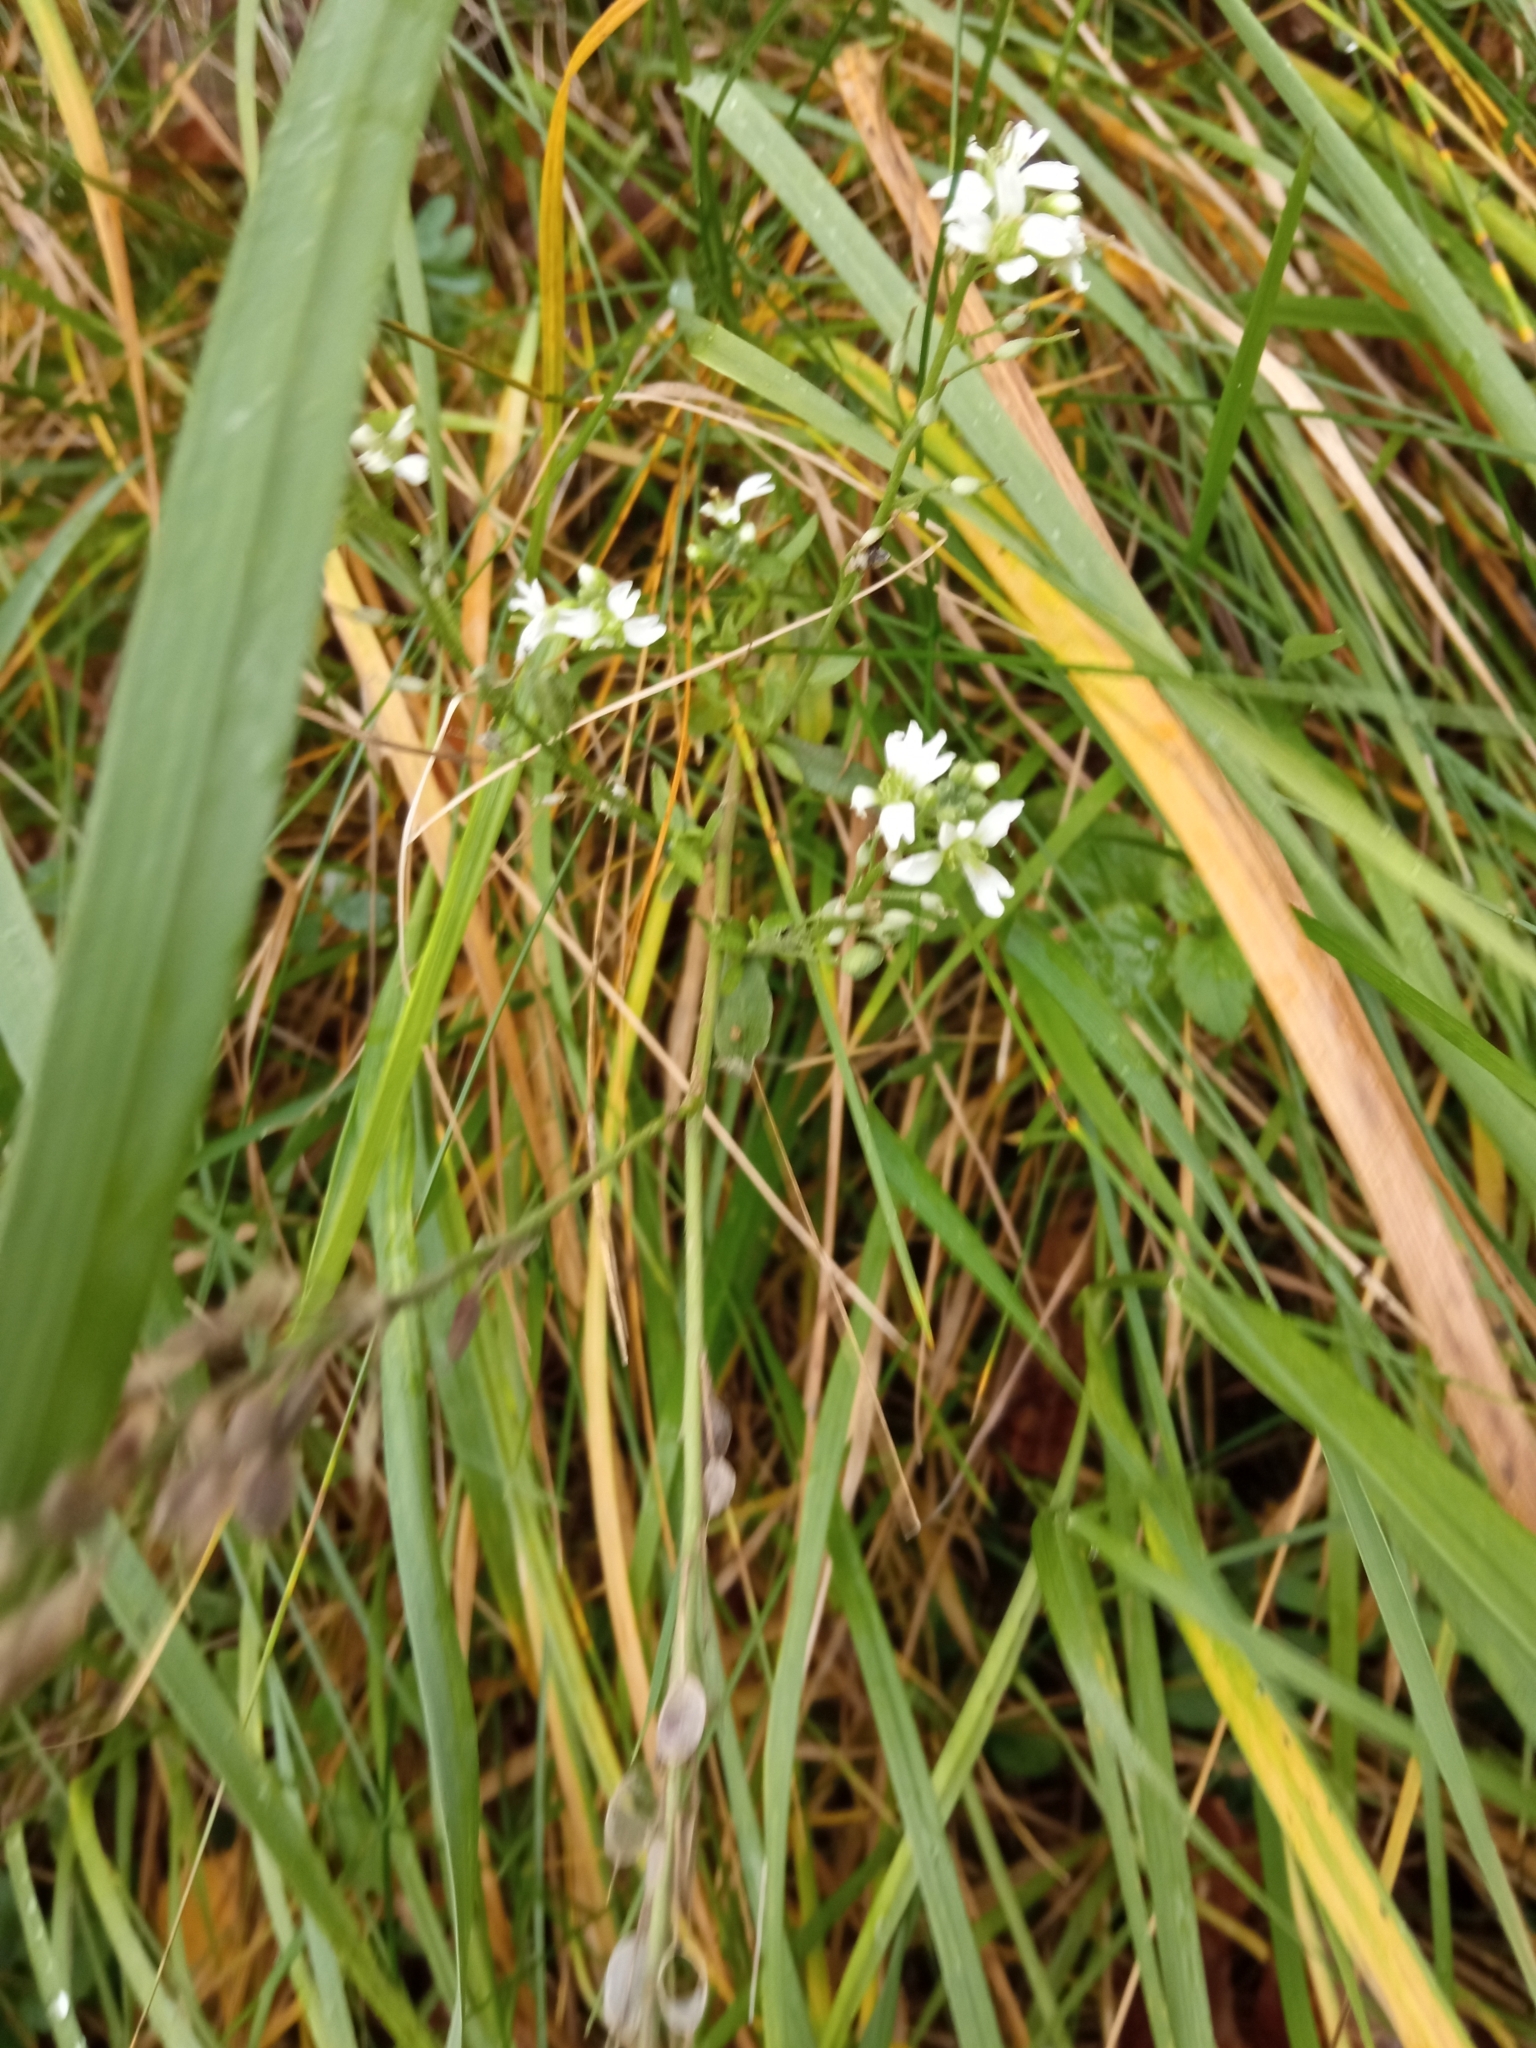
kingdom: Plantae
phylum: Tracheophyta
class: Magnoliopsida
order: Brassicales
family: Brassicaceae
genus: Berteroa
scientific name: Berteroa incana
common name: Hoary alison
